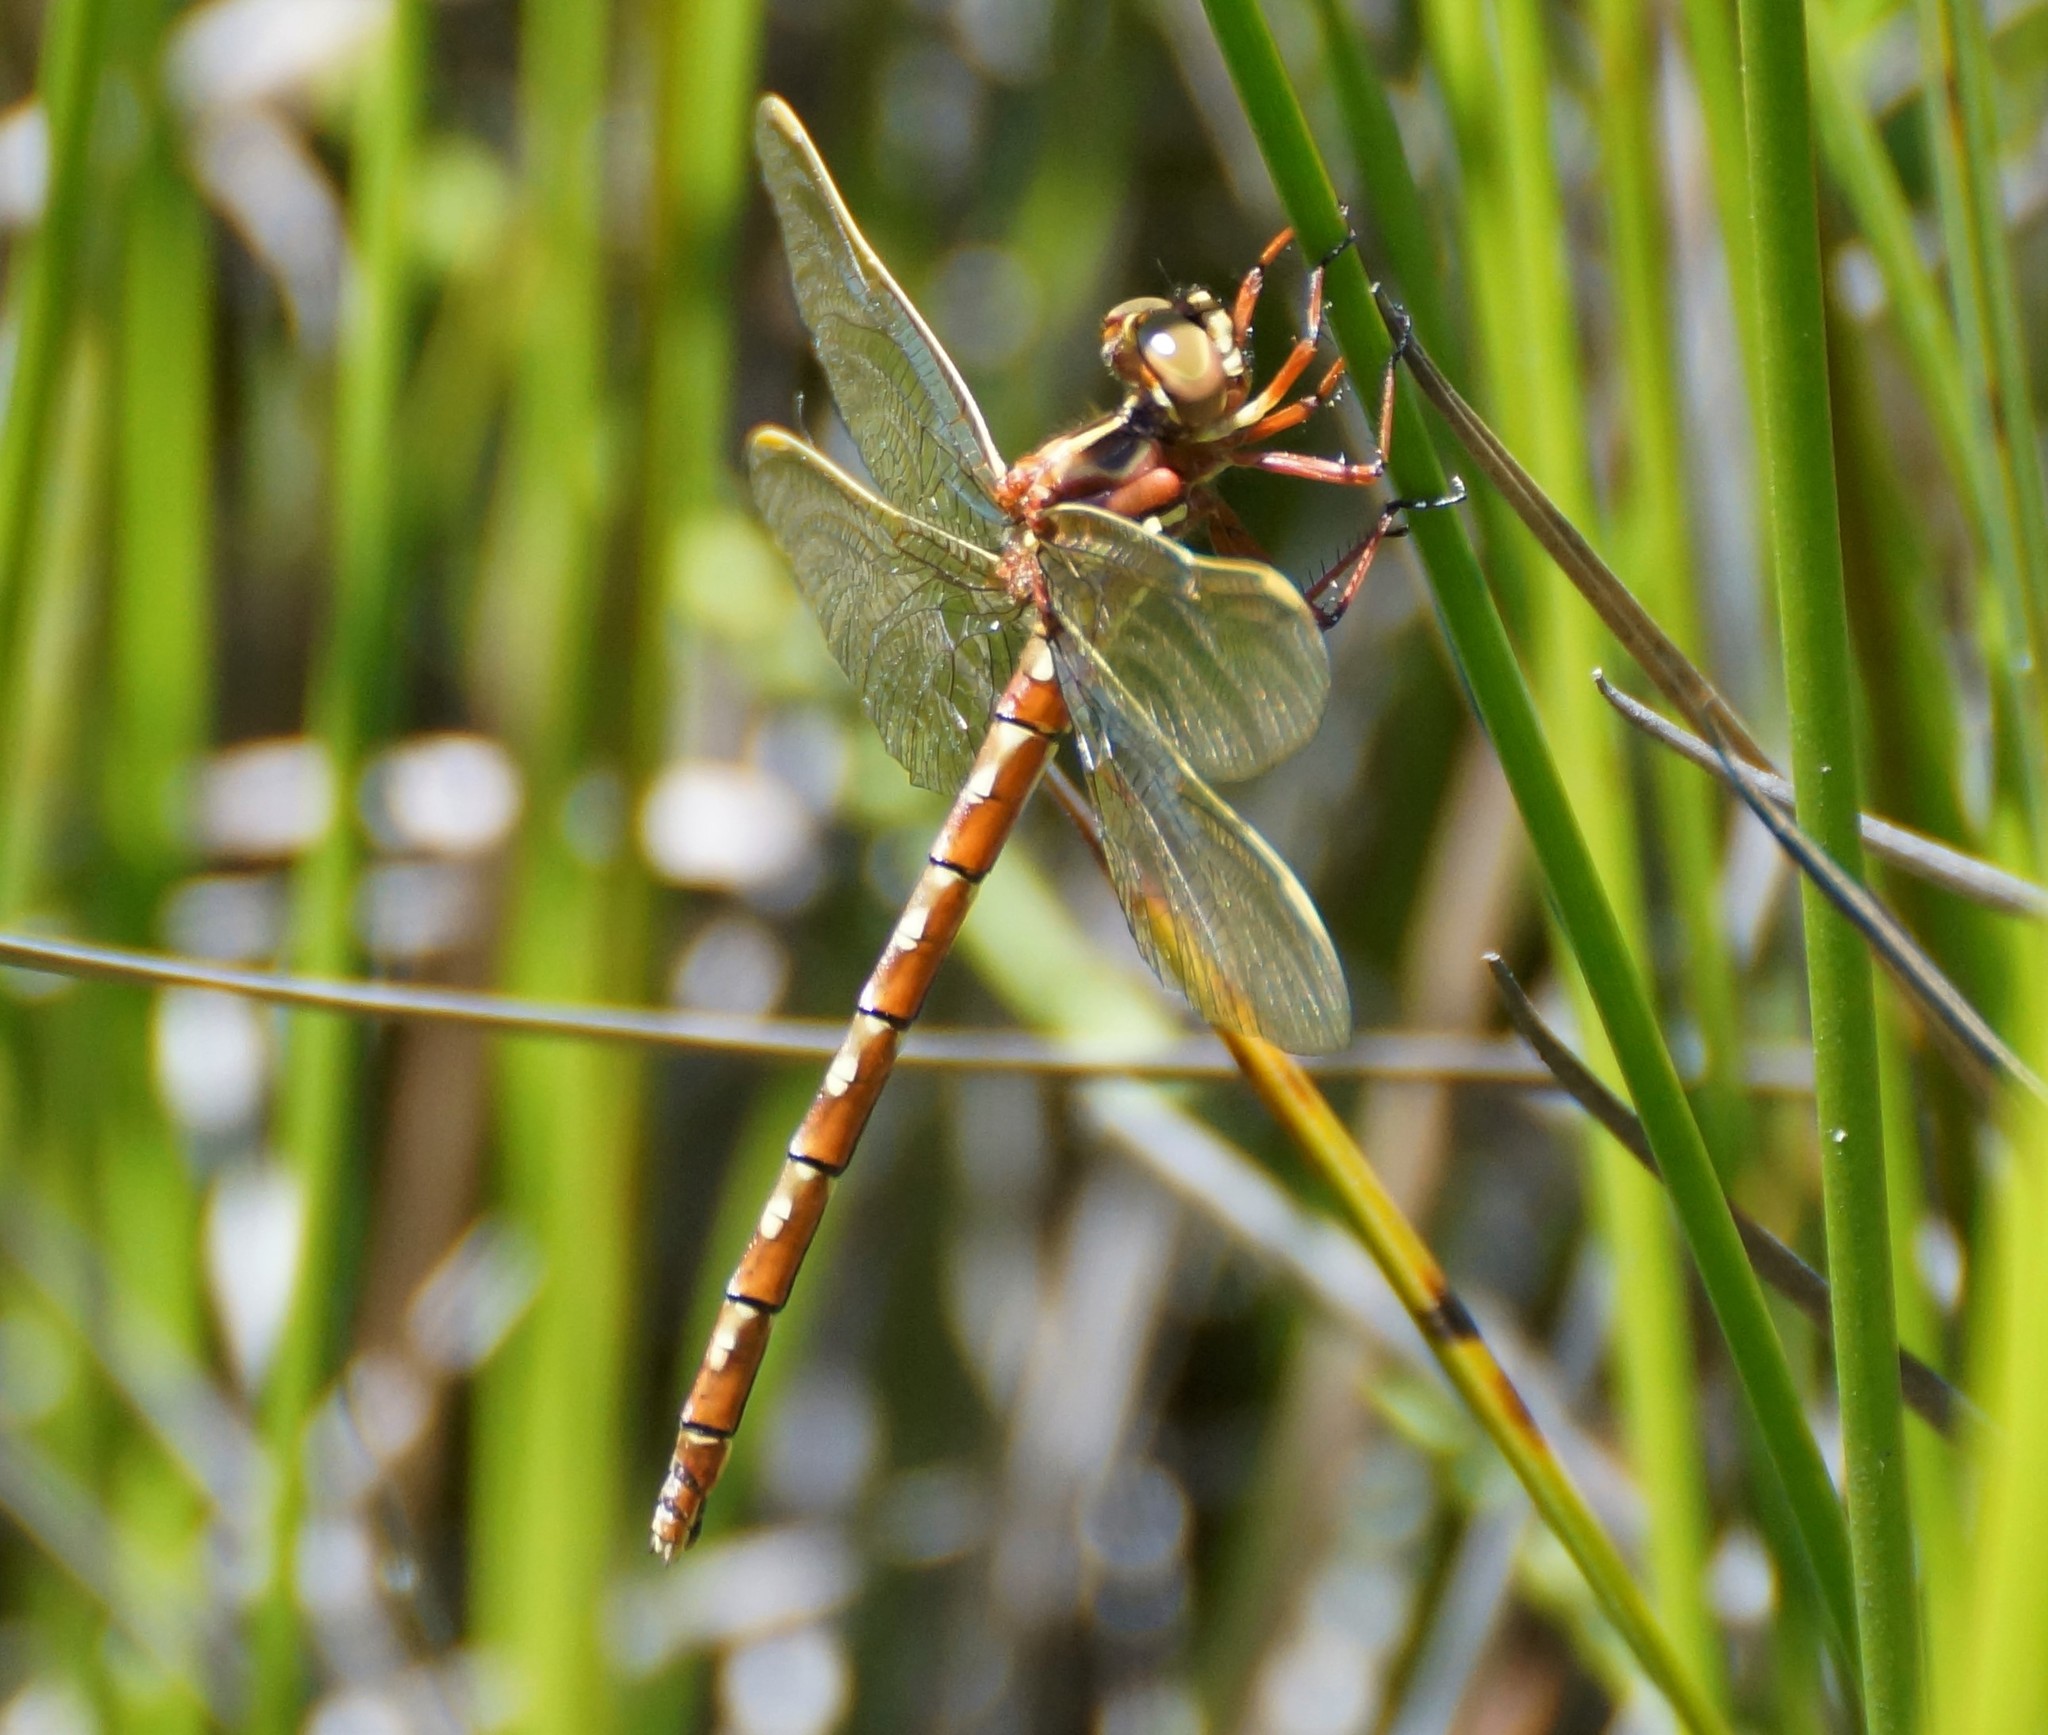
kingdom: Animalia
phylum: Arthropoda
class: Insecta
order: Odonata
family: Synthemistidae
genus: Archaeosynthemis
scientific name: Archaeosynthemis orientalis
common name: Eastern brown tigertail
